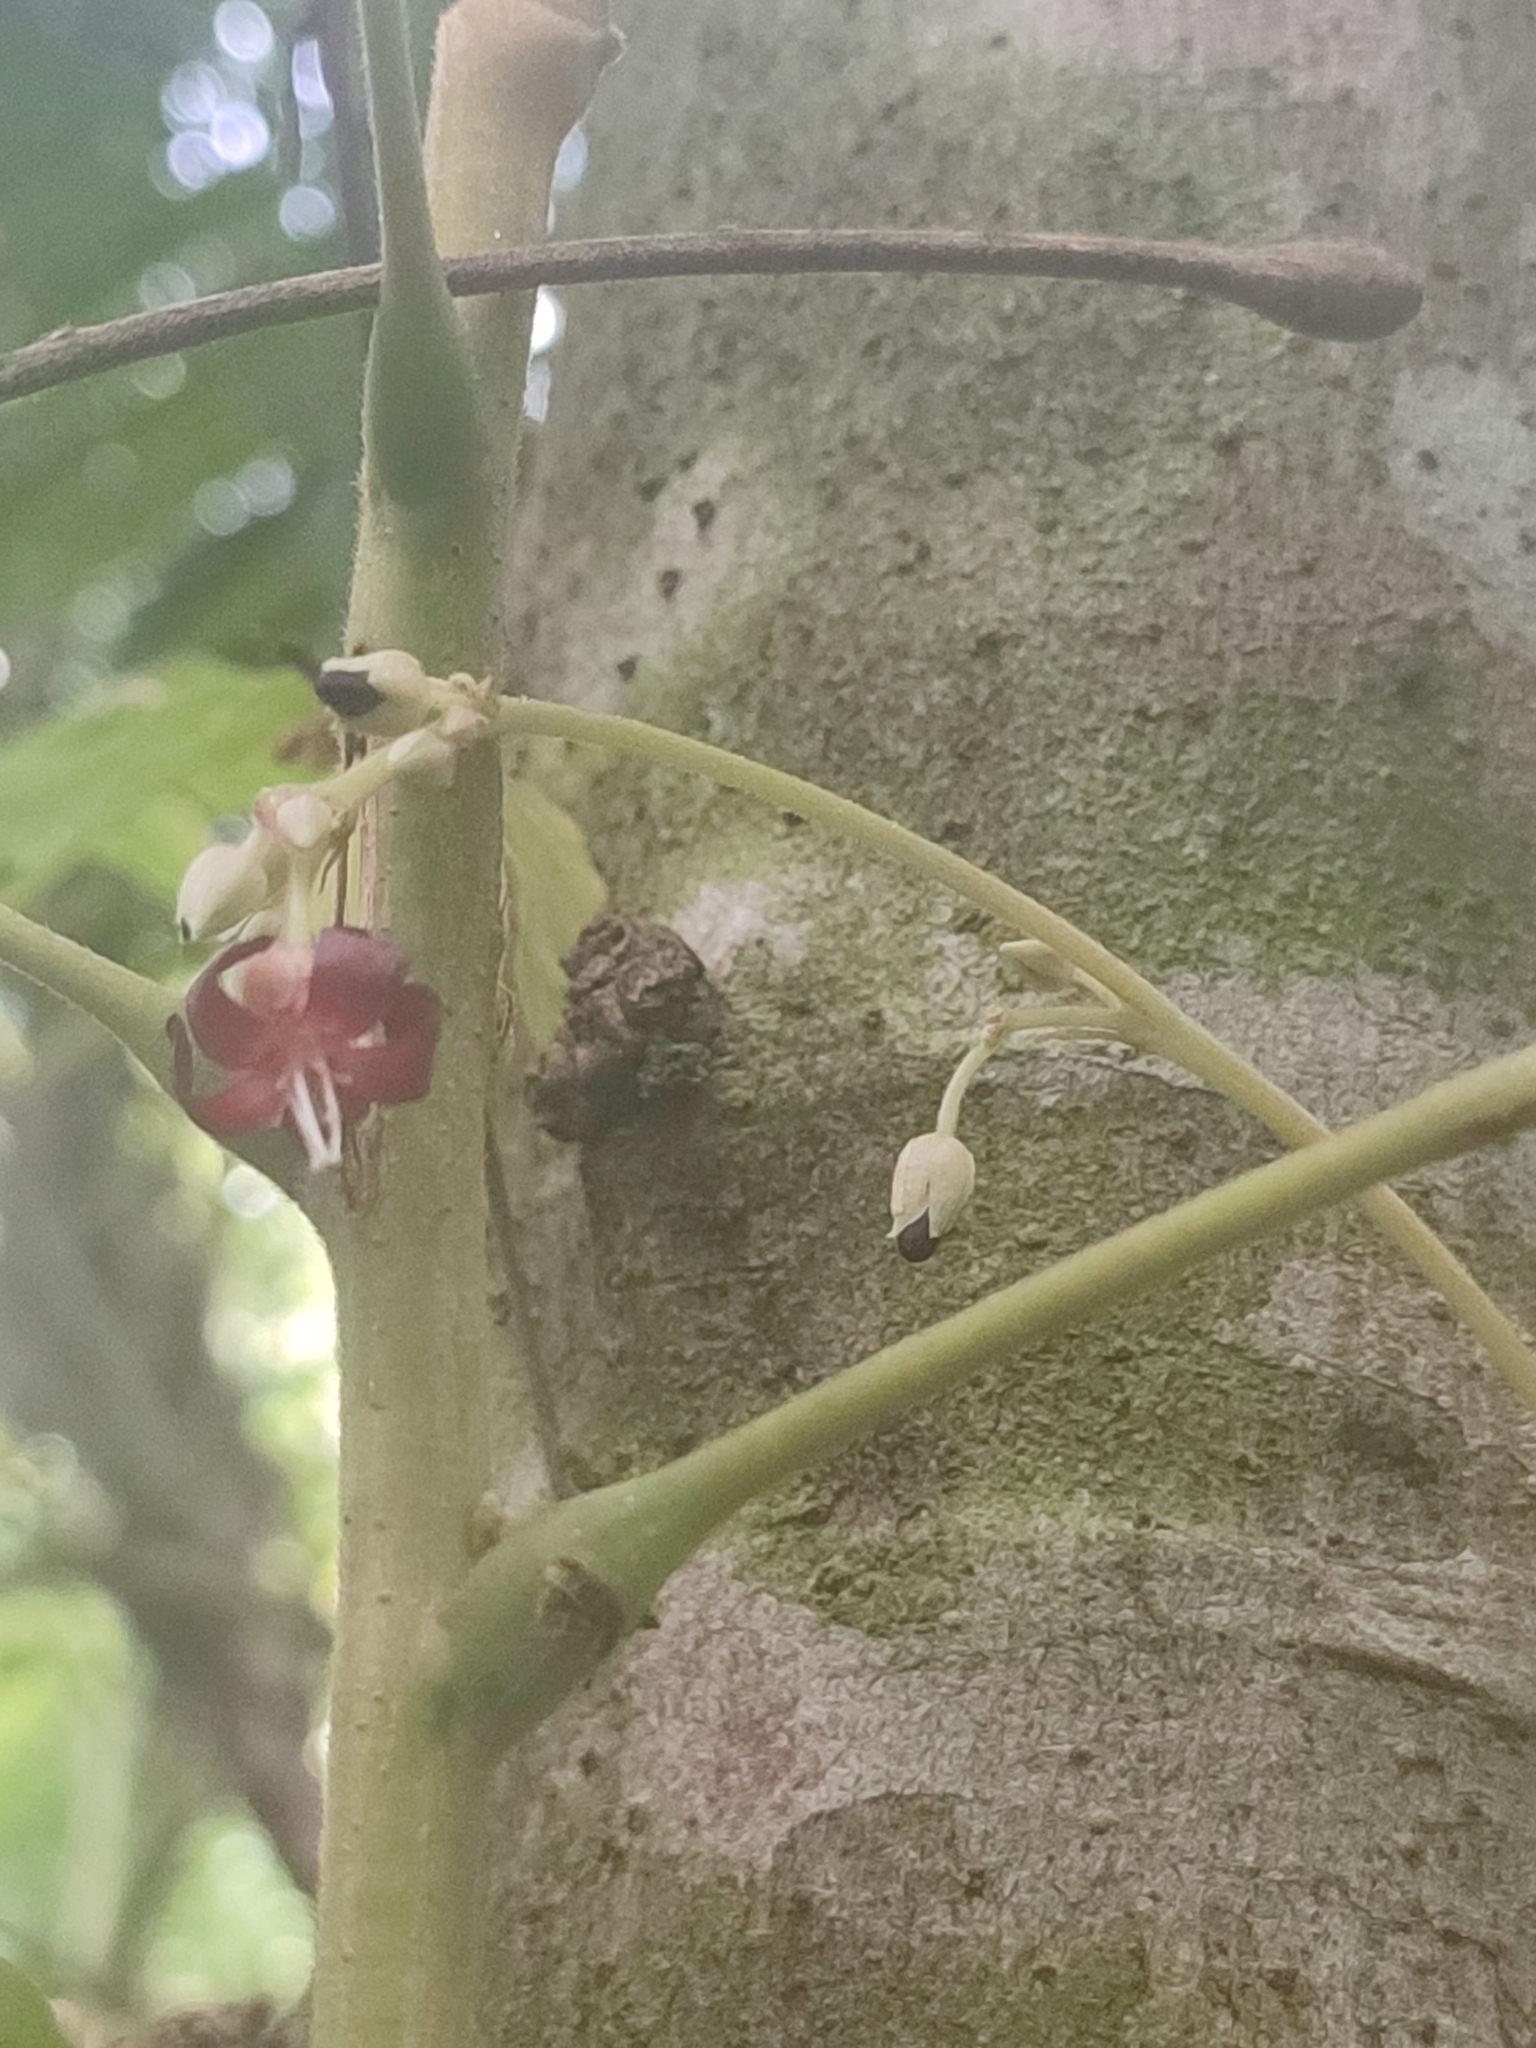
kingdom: Plantae
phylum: Tracheophyta
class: Magnoliopsida
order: Oxalidales
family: Oxalidaceae
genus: Averrhoa
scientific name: Averrhoa bilimbi
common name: Bilimbi
